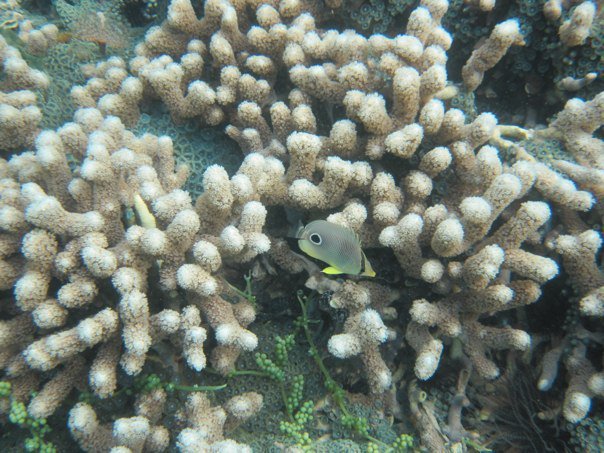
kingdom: Animalia
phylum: Chordata
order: Perciformes
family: Chaetodontidae
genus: Chaetodon
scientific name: Chaetodon capistratus
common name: Kete
